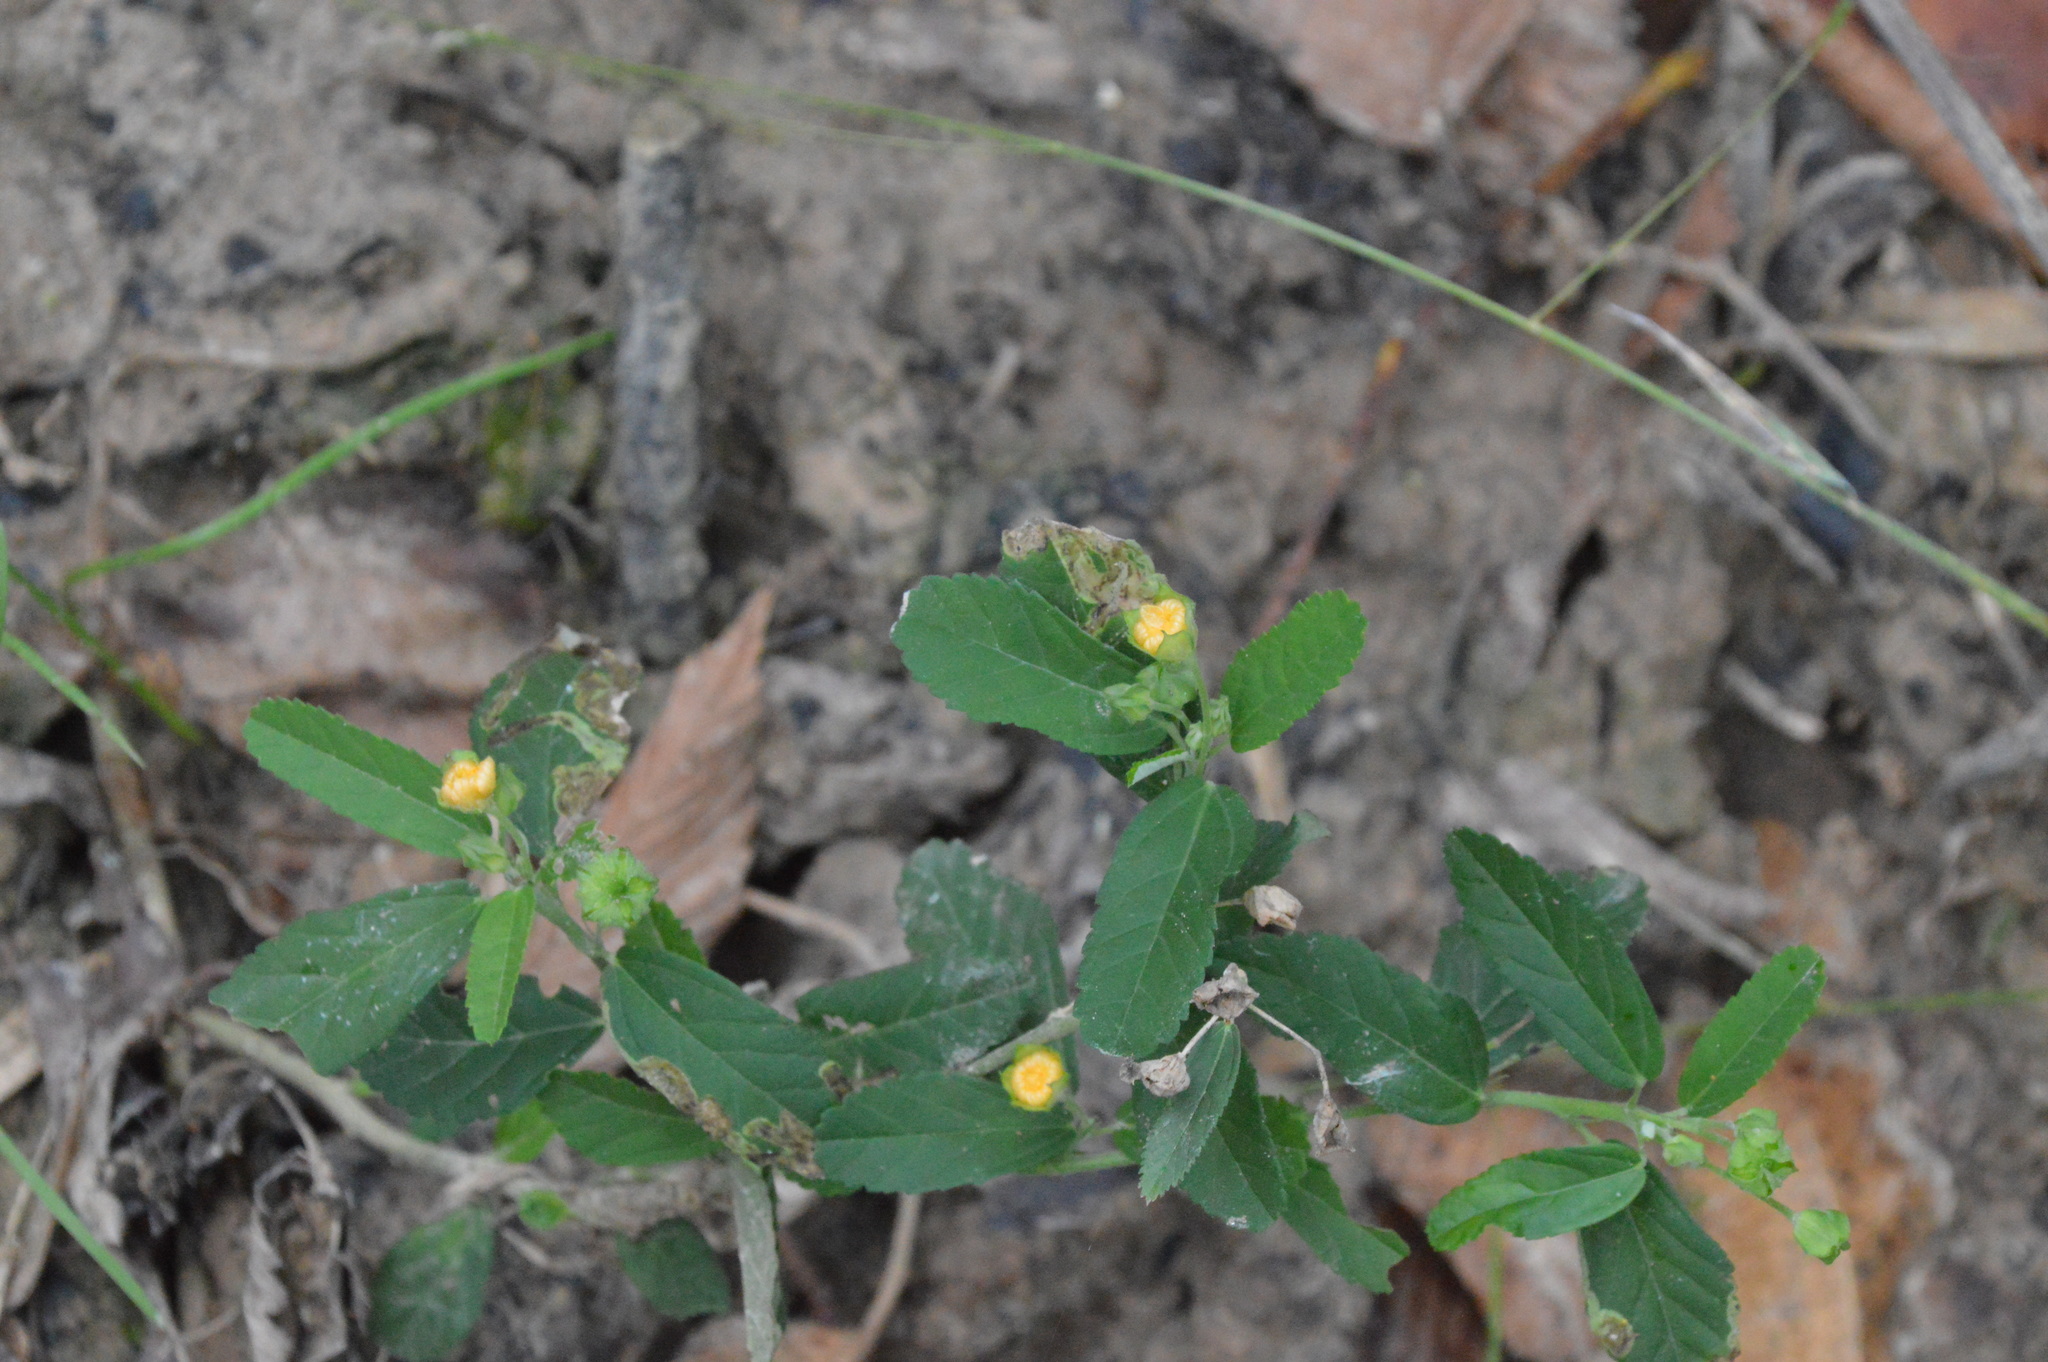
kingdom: Plantae
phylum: Tracheophyta
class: Magnoliopsida
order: Malvales
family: Malvaceae
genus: Sida
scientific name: Sida rhombifolia
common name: Queensland-hemp
